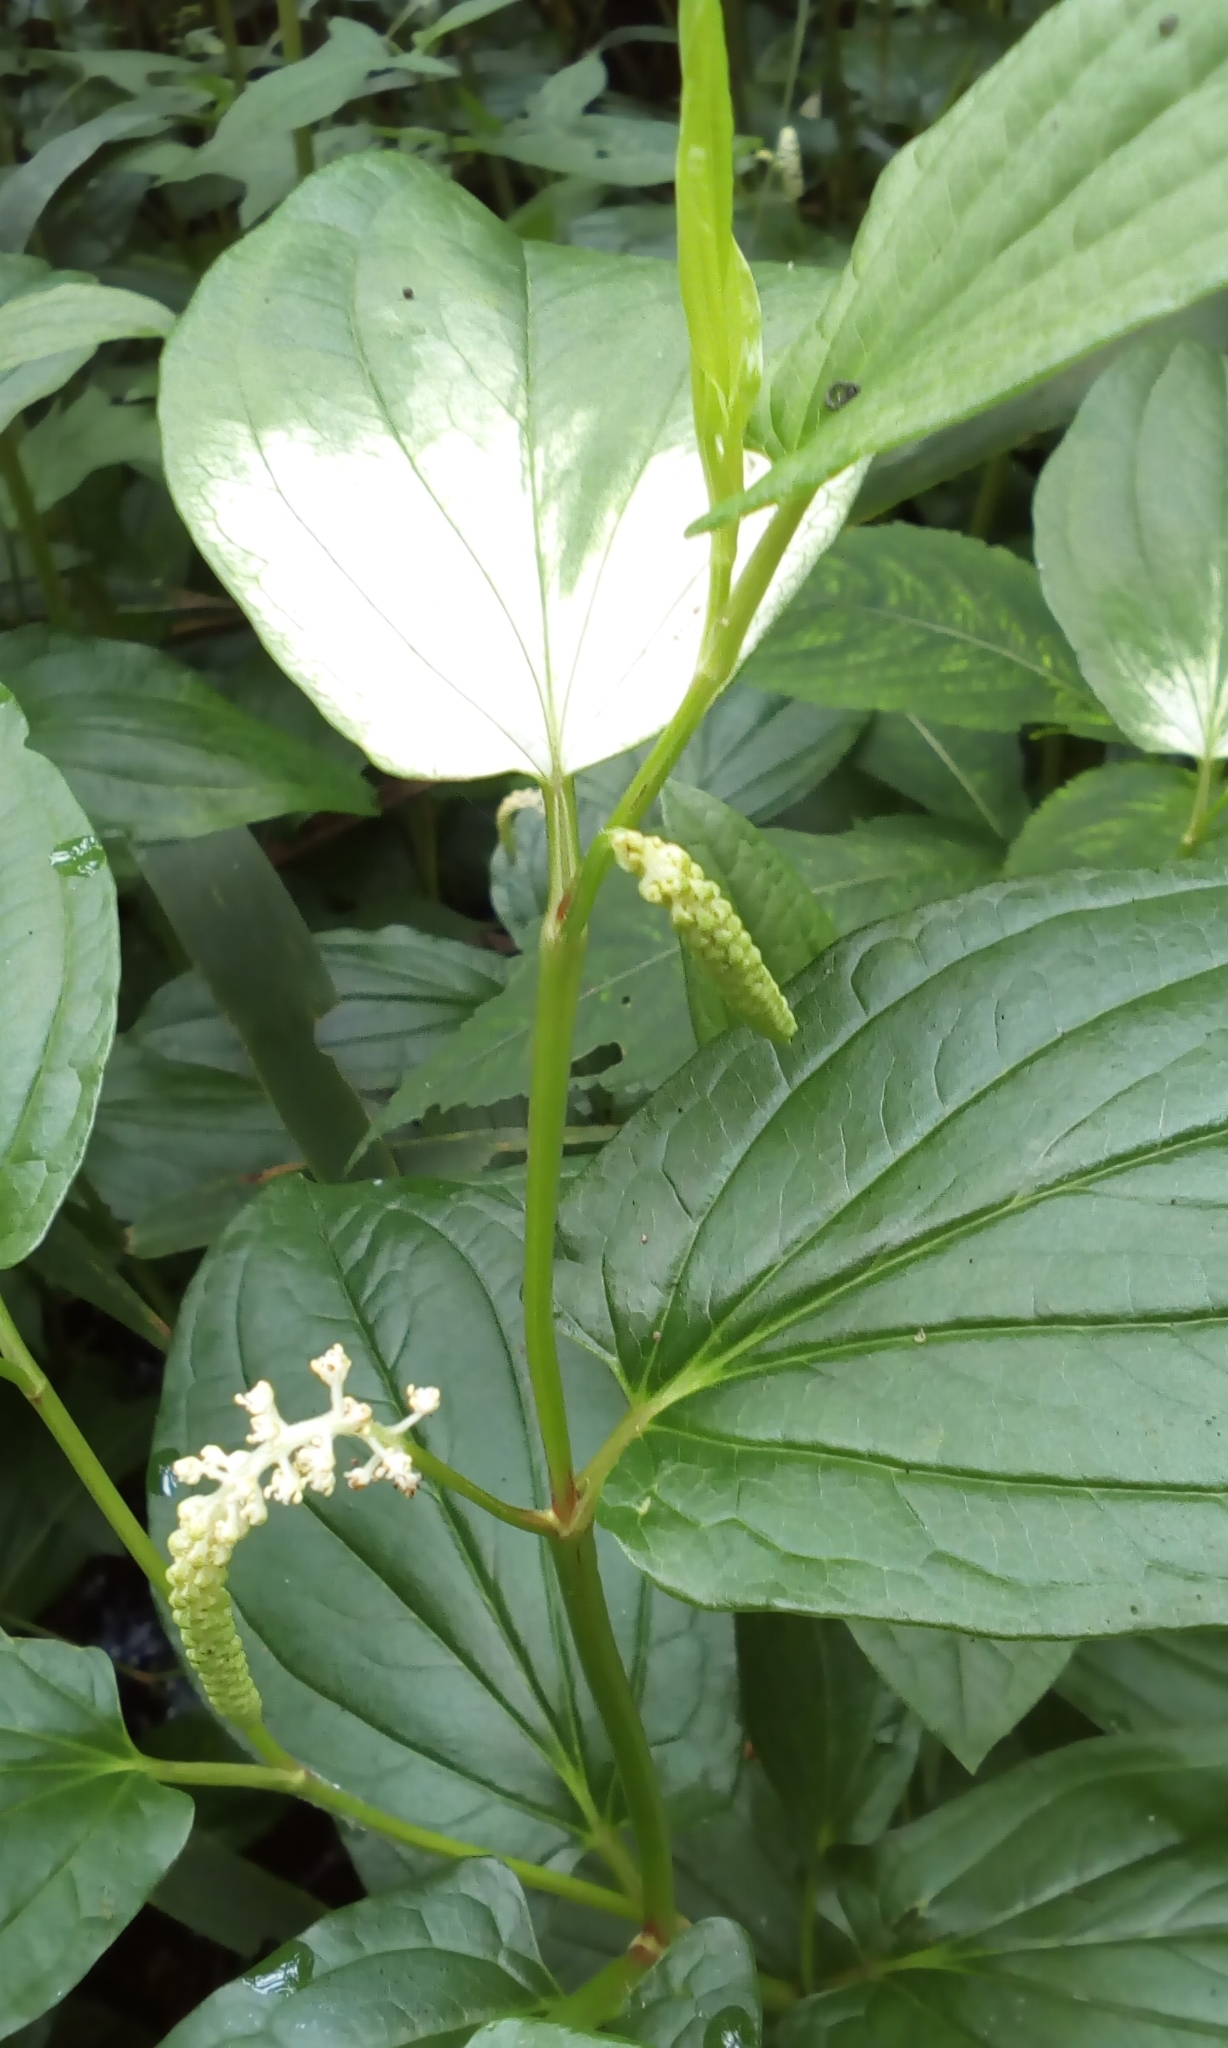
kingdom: Plantae
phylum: Tracheophyta
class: Magnoliopsida
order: Piperales
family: Saururaceae
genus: Saururus
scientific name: Saururus chinensis
